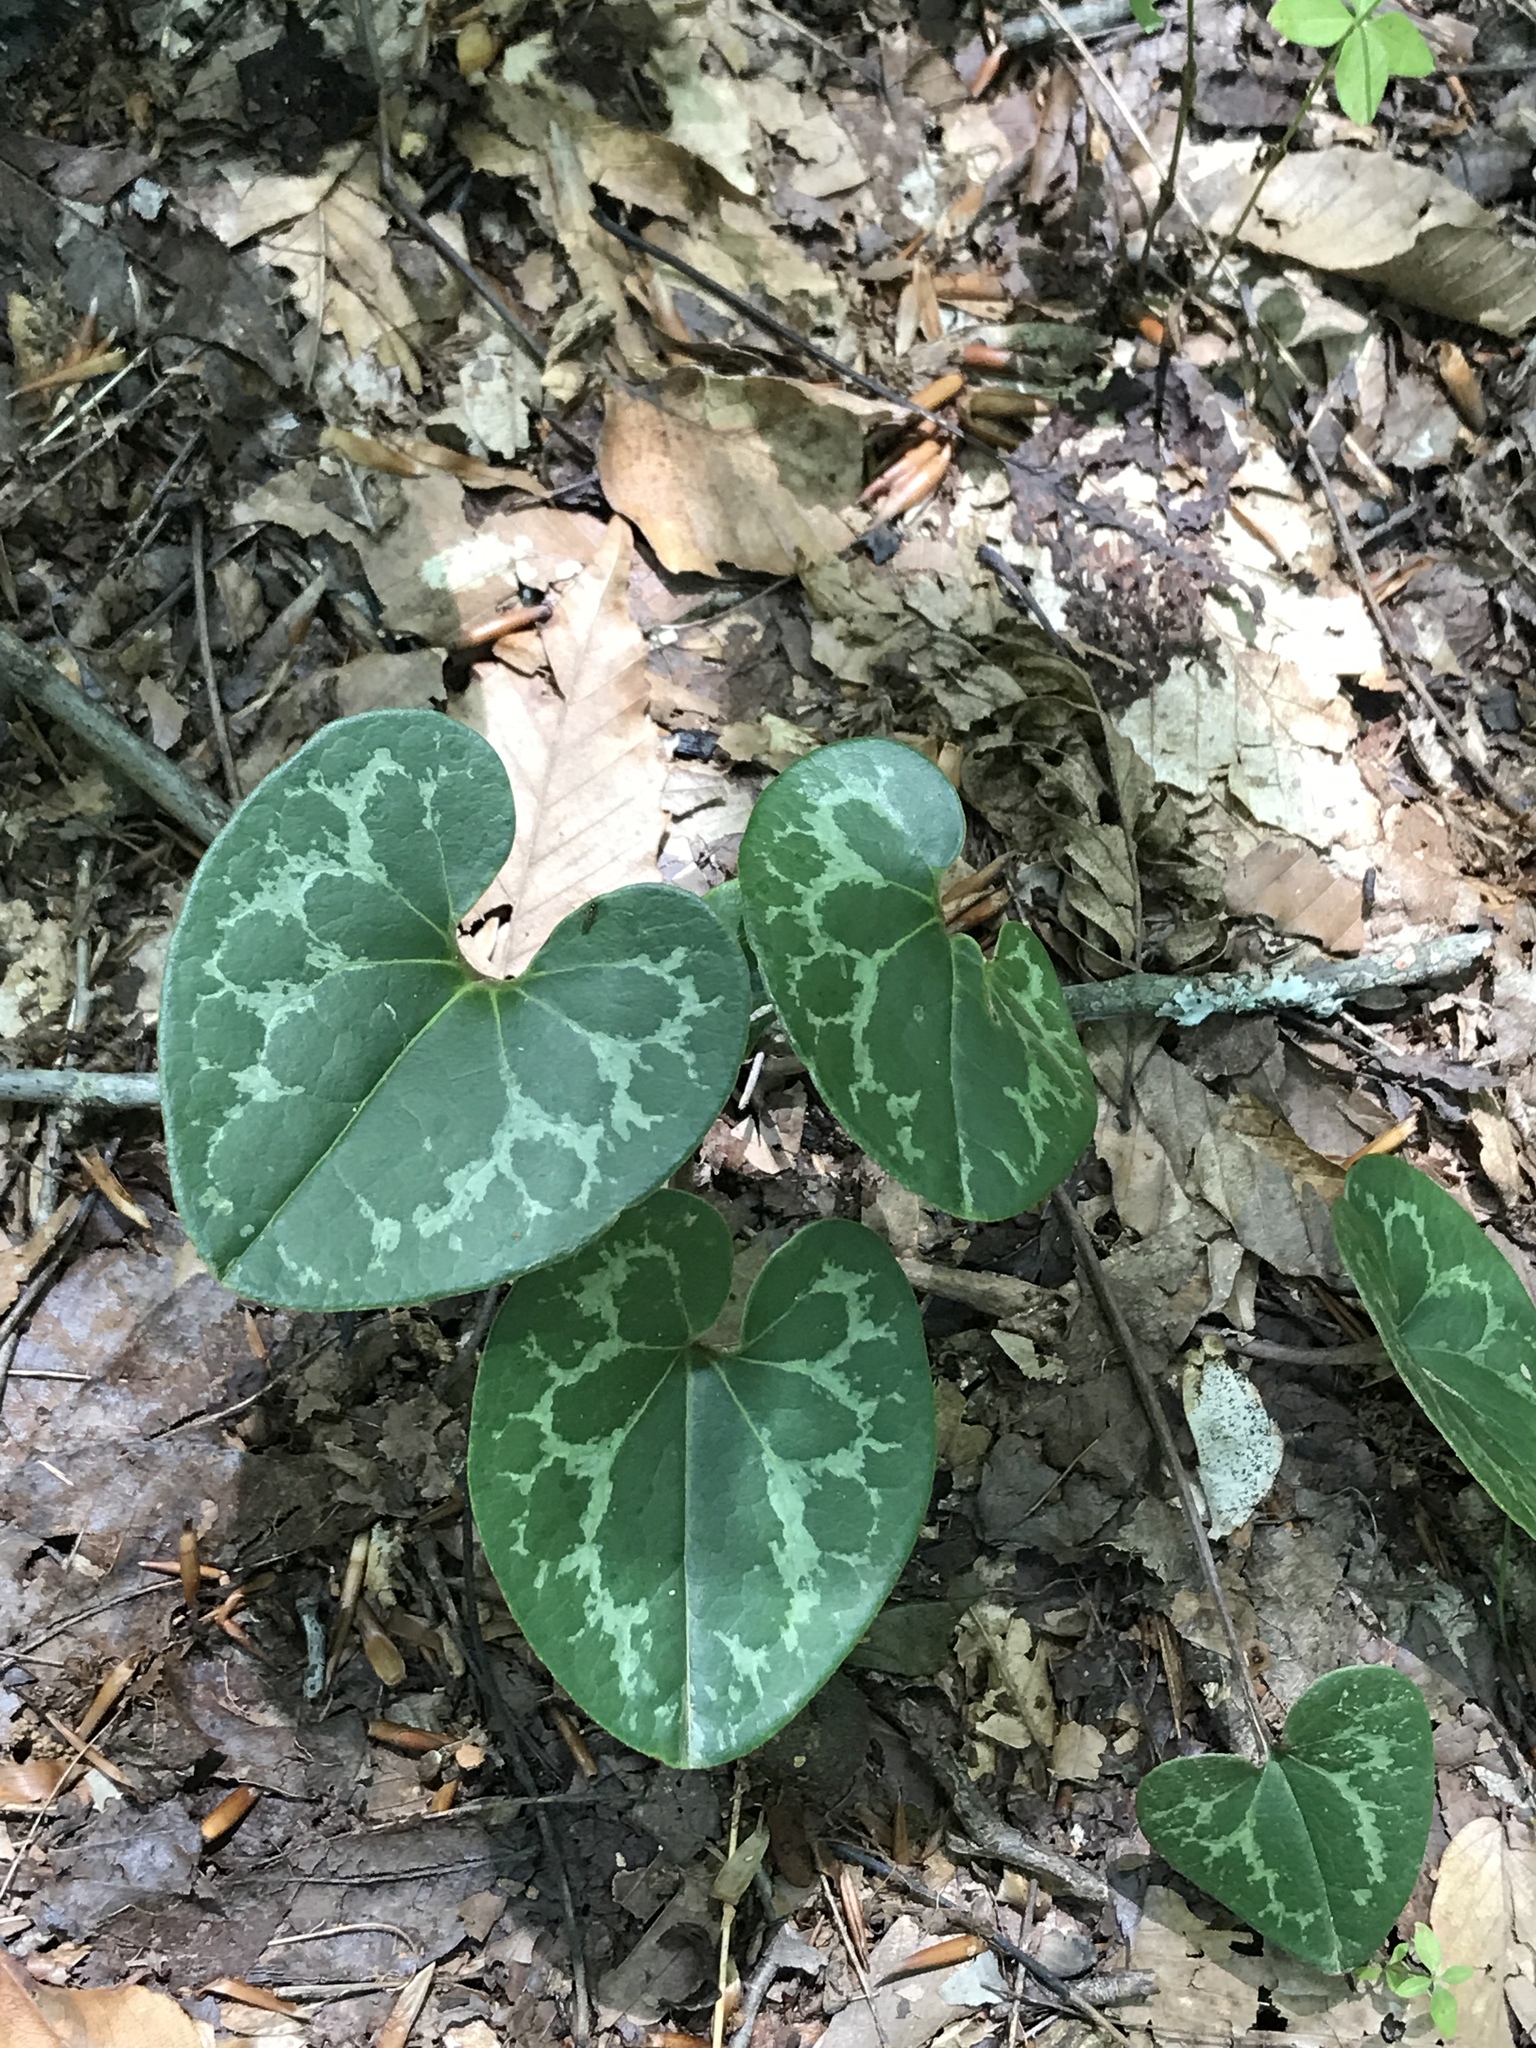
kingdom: Plantae
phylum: Tracheophyta
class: Magnoliopsida
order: Piperales
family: Aristolochiaceae
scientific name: Aristolochiaceae
